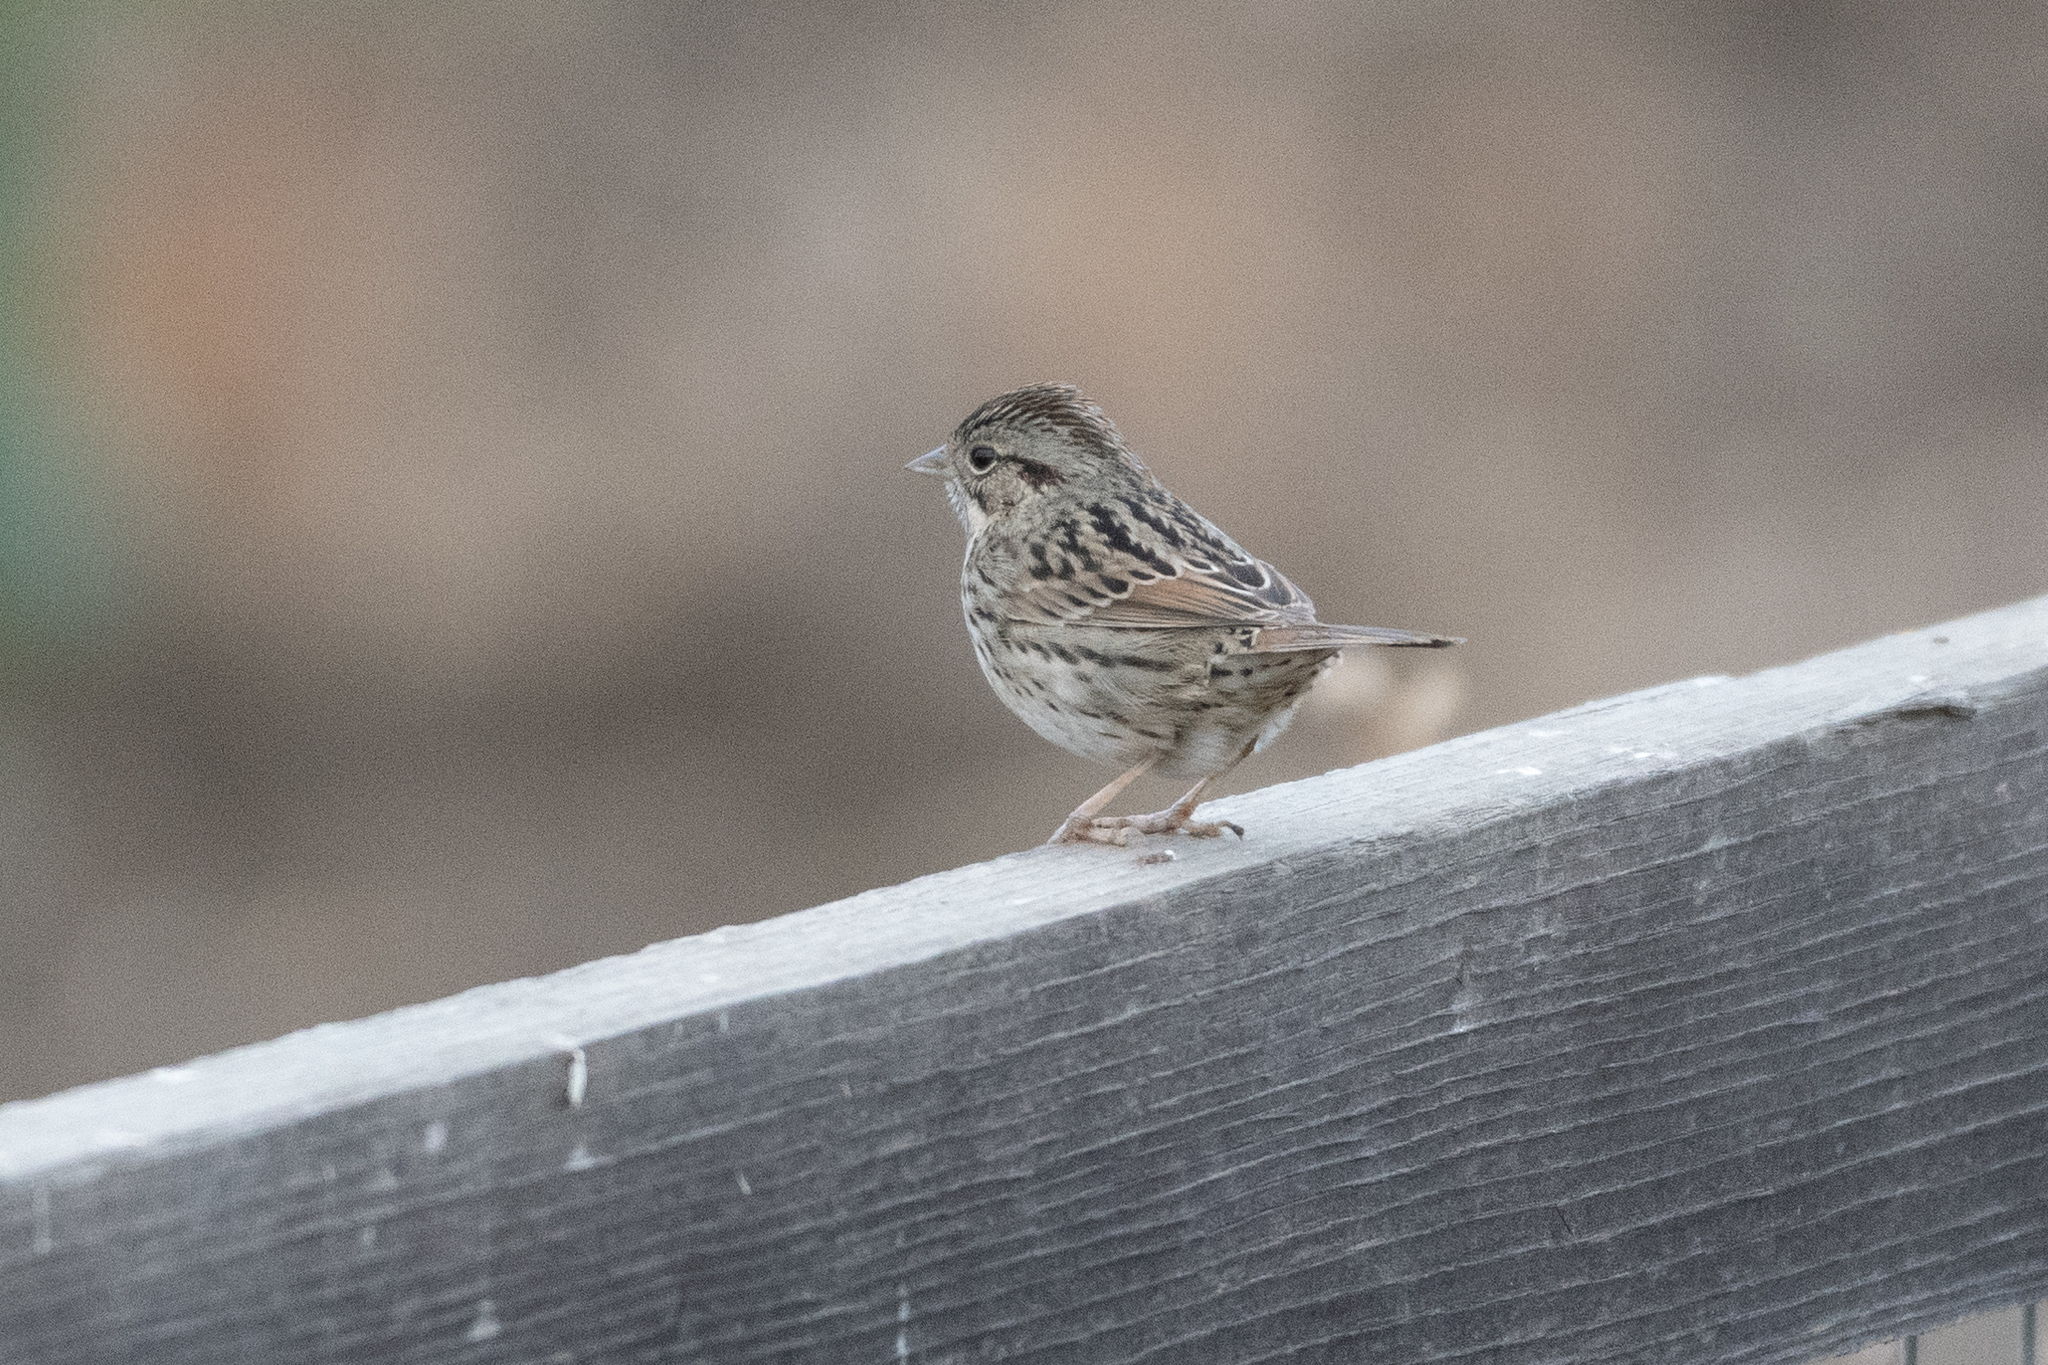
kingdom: Animalia
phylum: Chordata
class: Aves
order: Passeriformes
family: Passerellidae
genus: Melospiza
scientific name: Melospiza lincolnii
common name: Lincoln's sparrow
